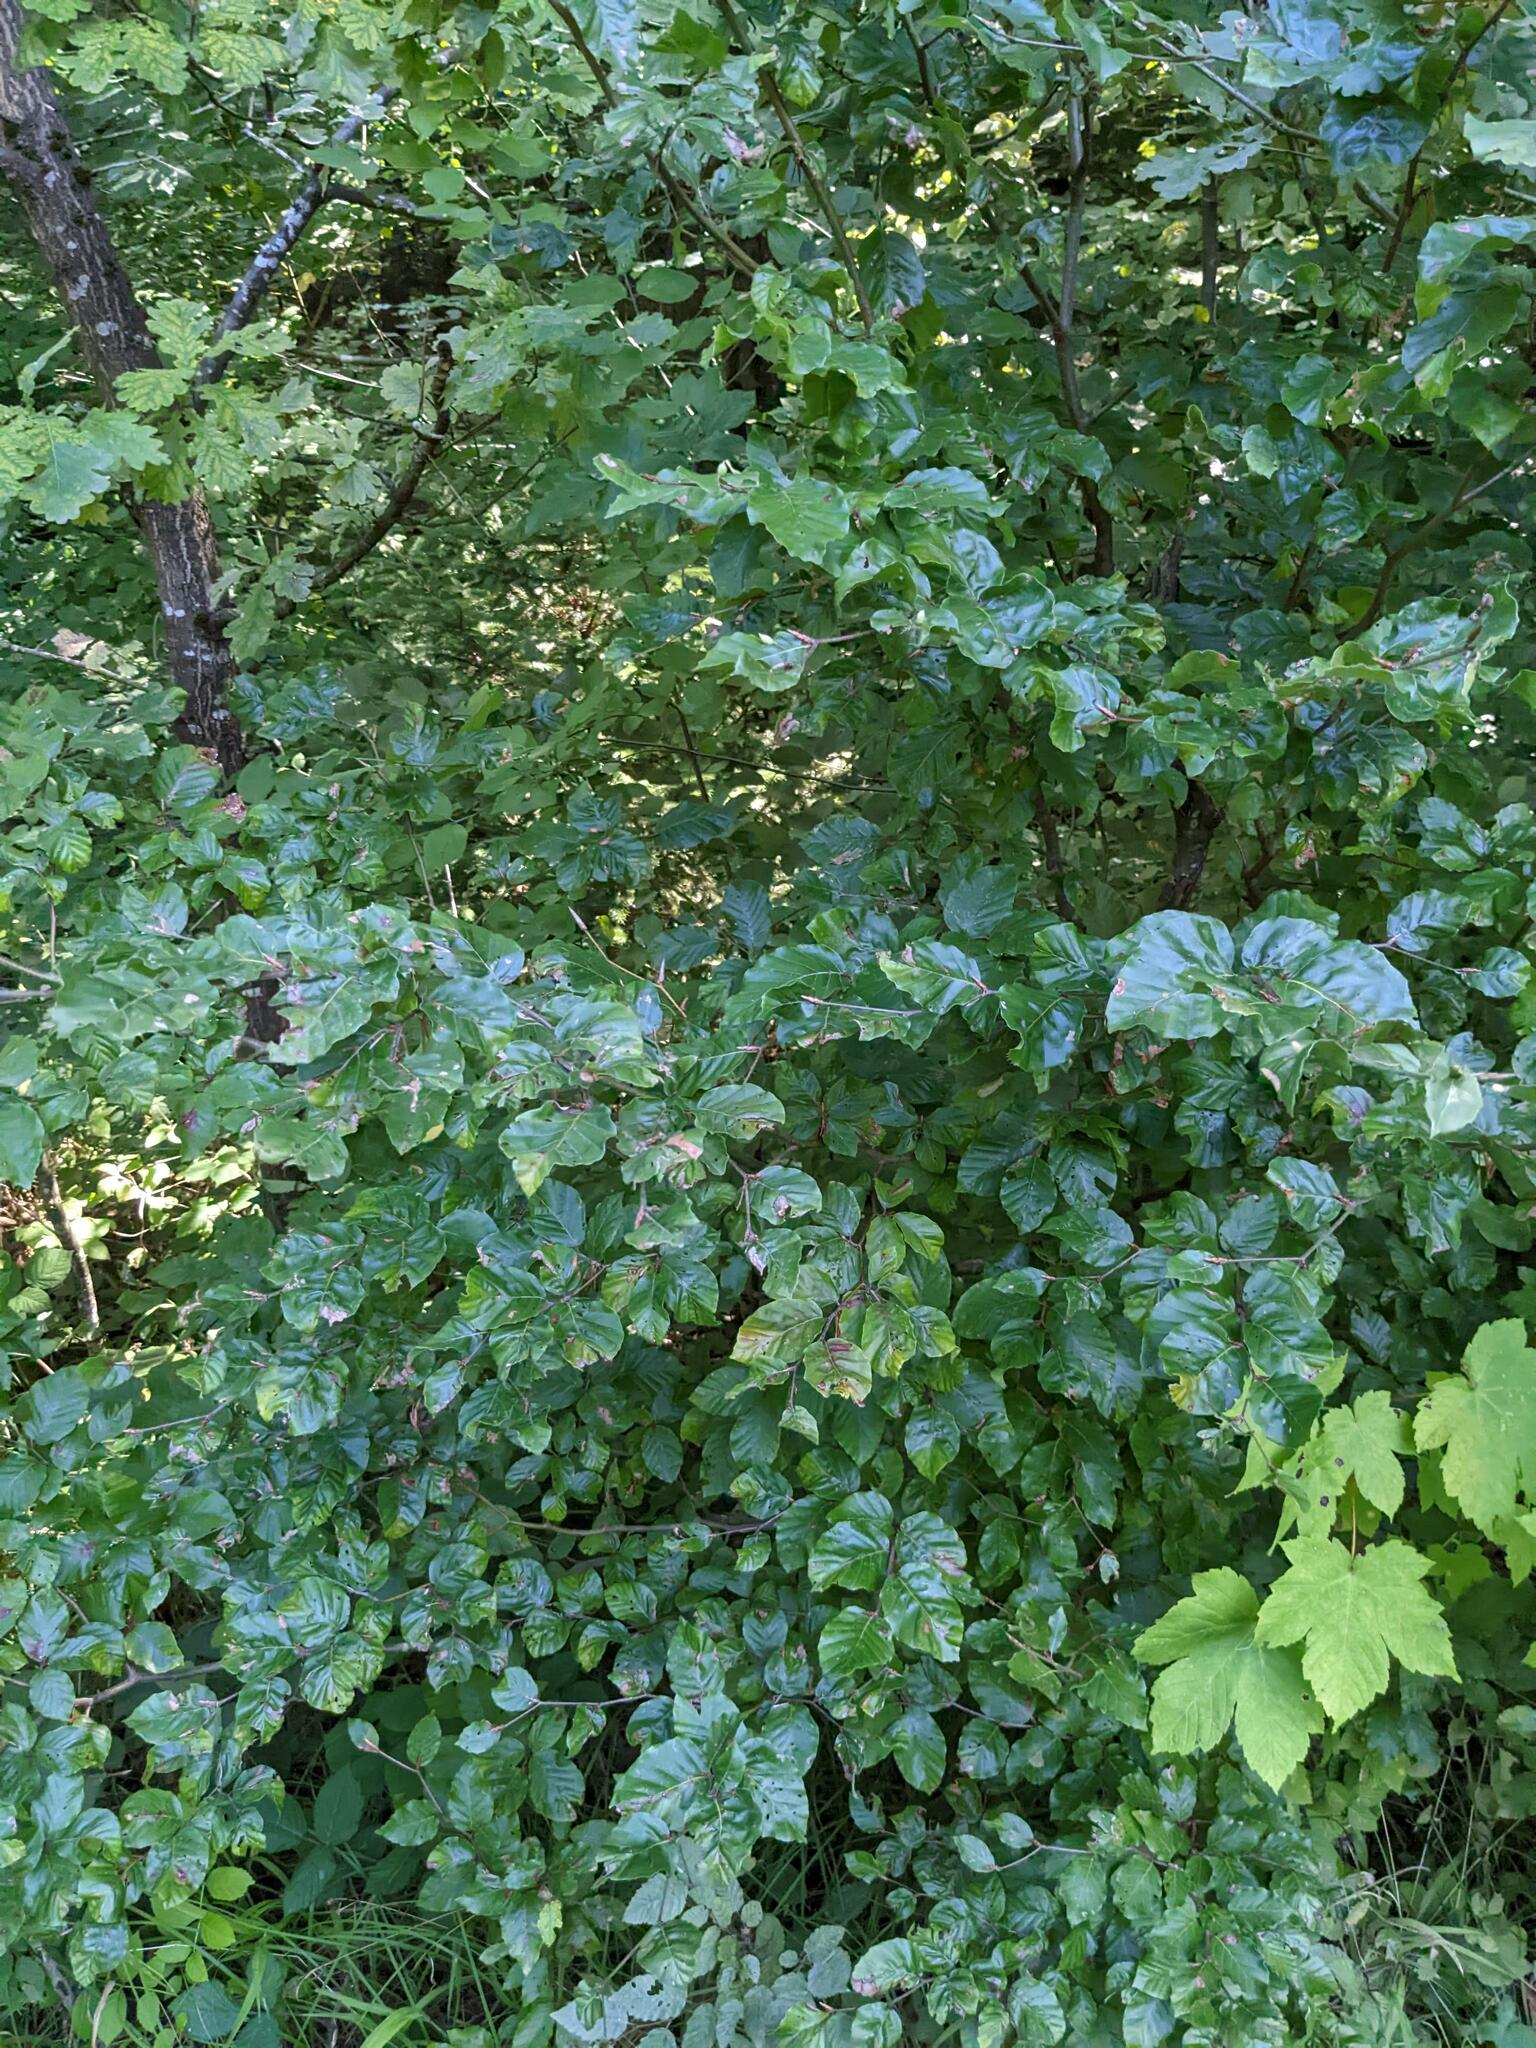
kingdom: Plantae
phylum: Tracheophyta
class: Magnoliopsida
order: Fagales
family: Fagaceae
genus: Fagus
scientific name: Fagus sylvatica
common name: Beech
